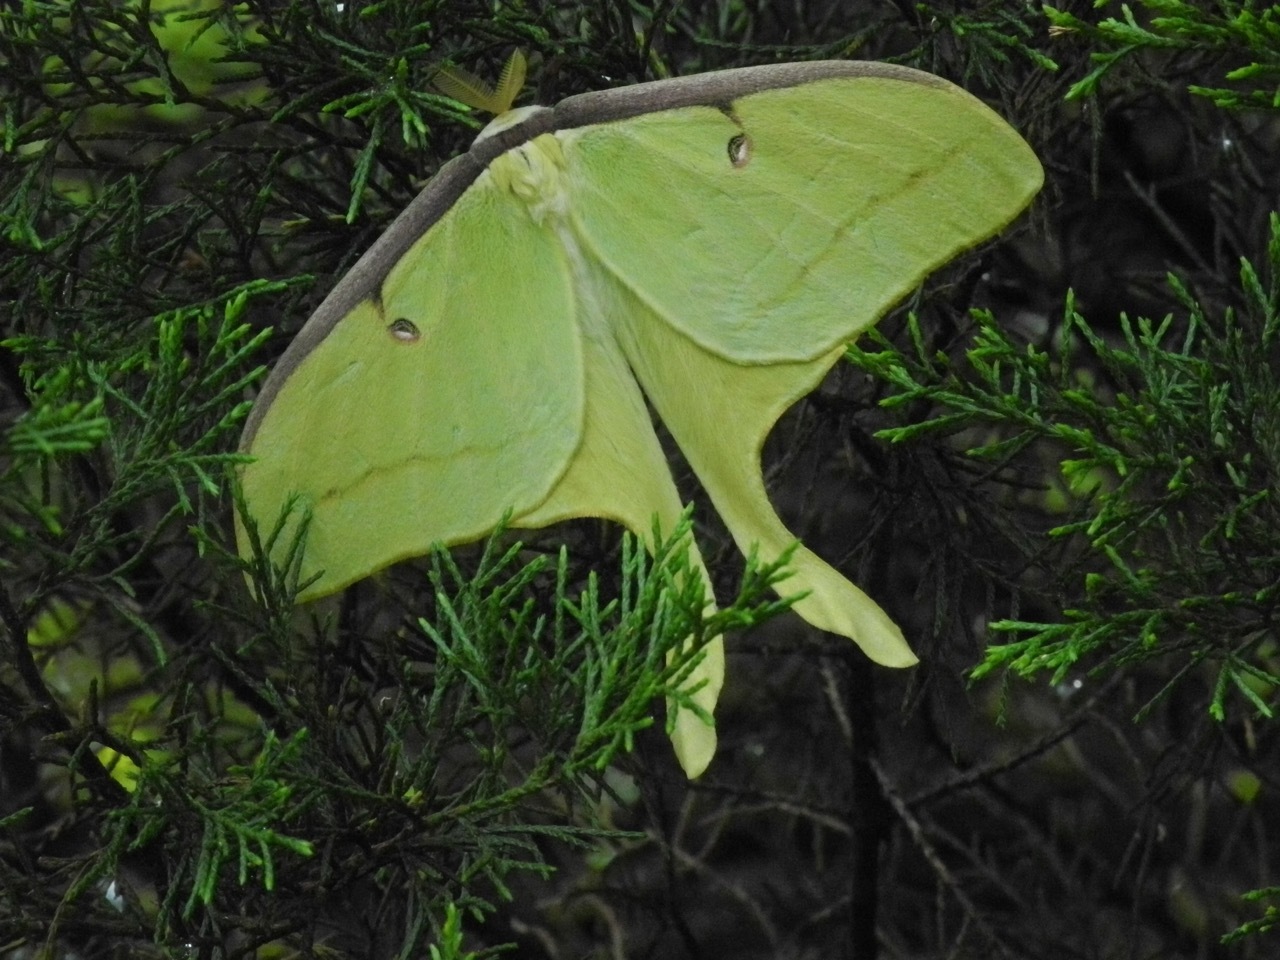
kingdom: Animalia
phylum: Arthropoda
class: Insecta
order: Lepidoptera
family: Saturniidae
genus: Actias
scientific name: Actias luna
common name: Luna moth
